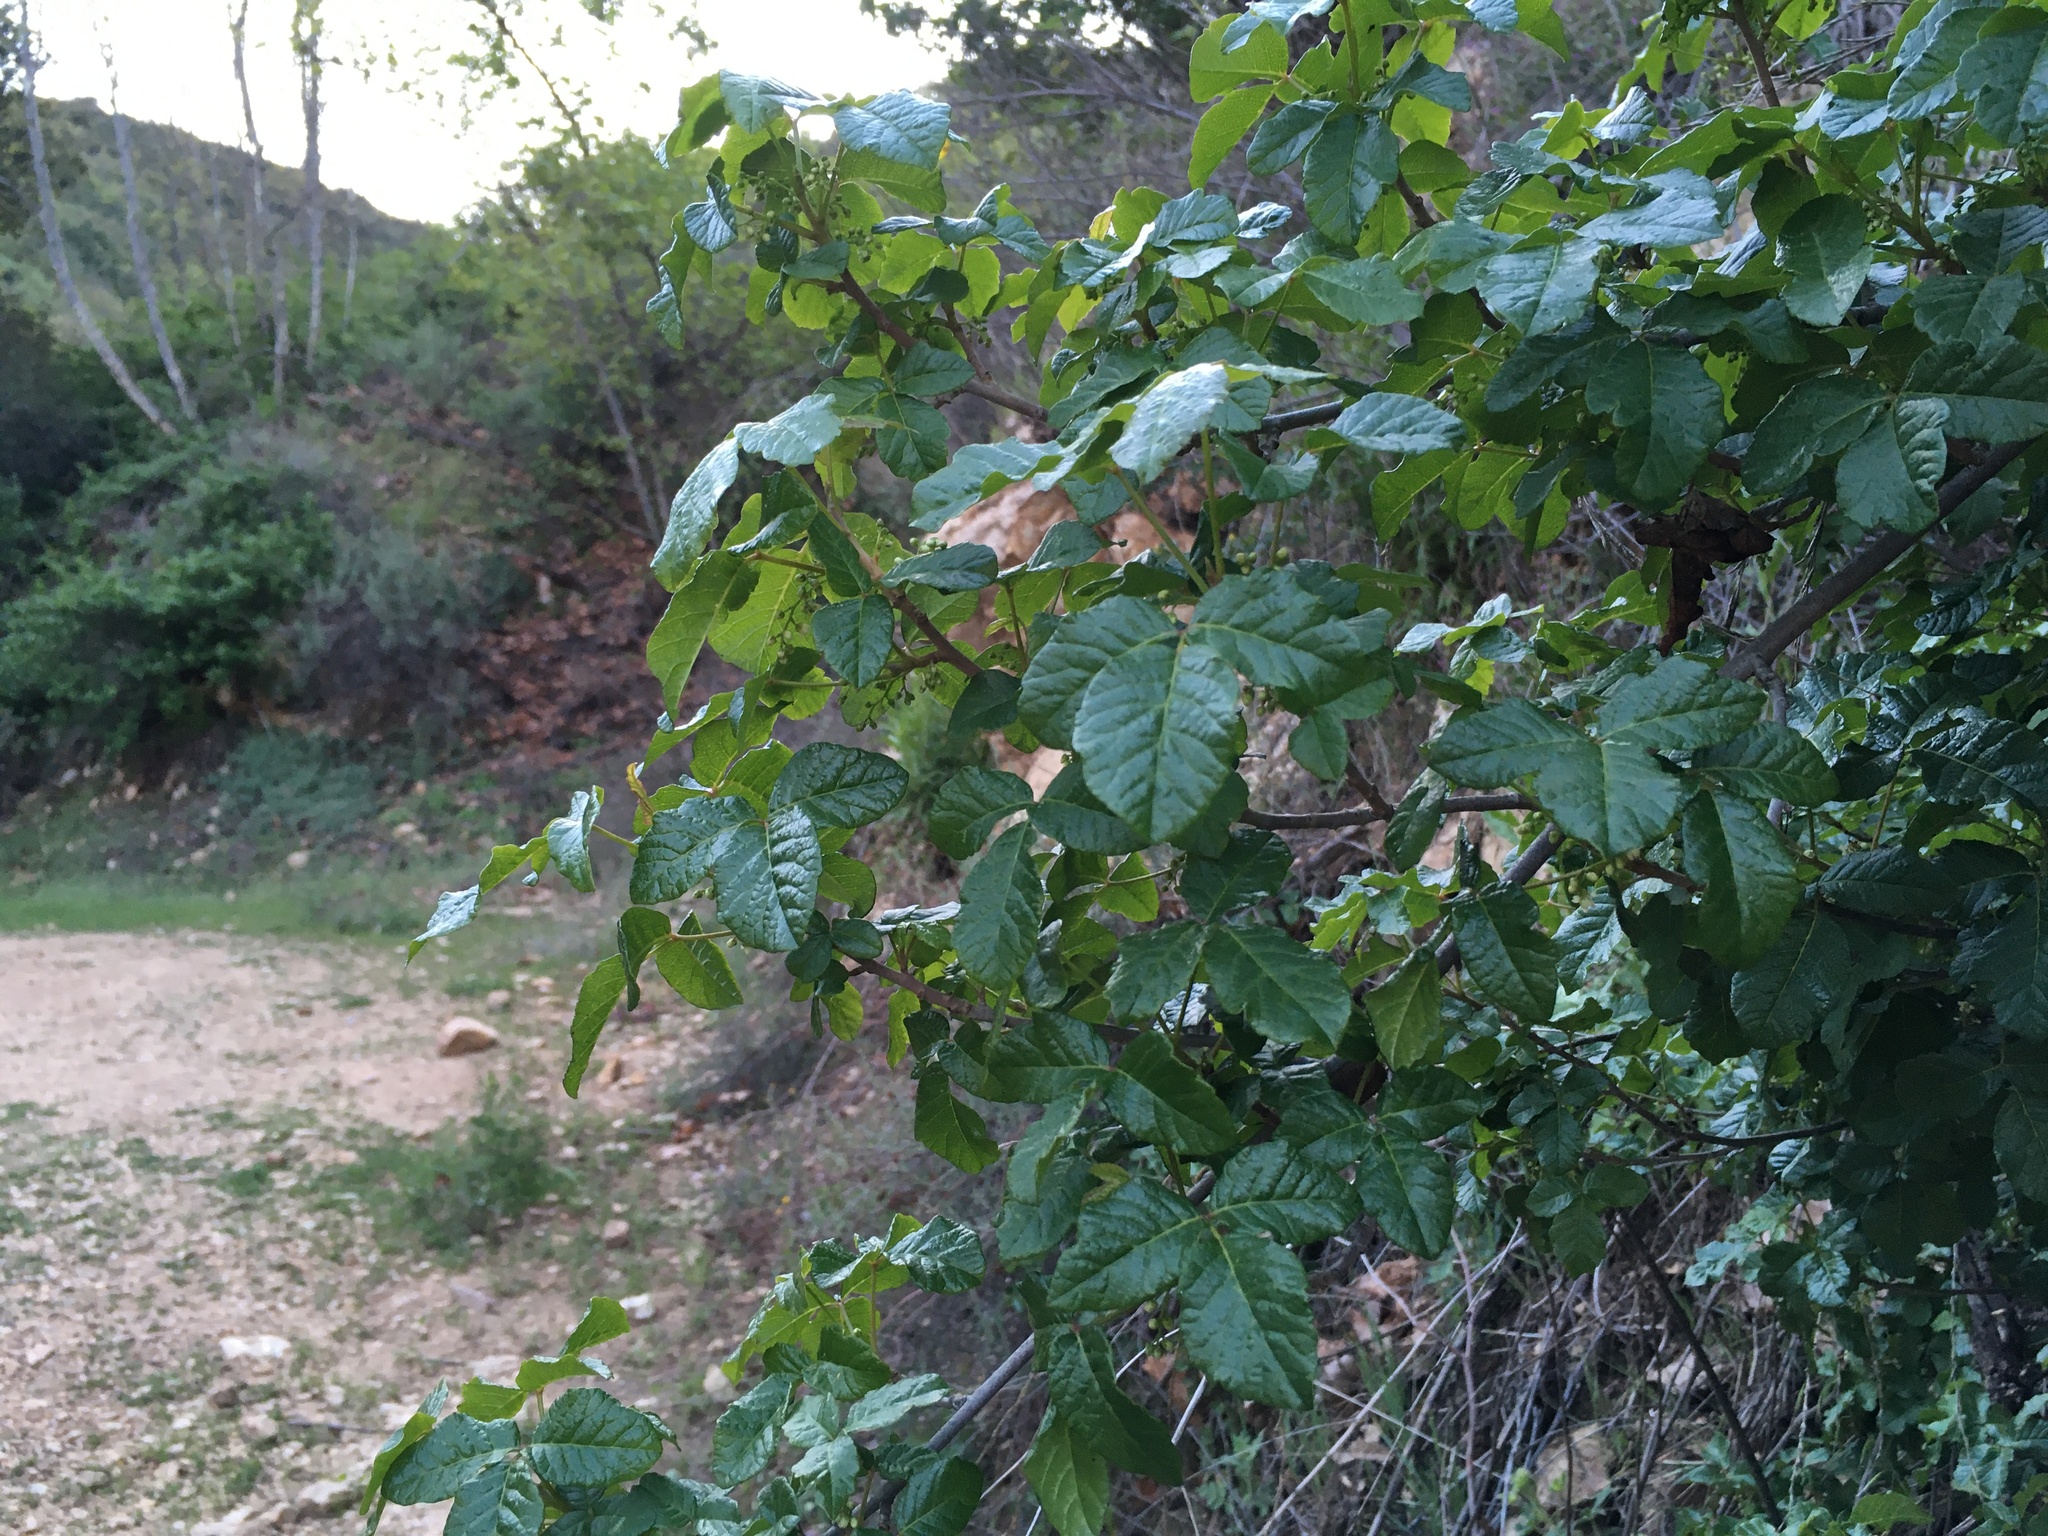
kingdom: Plantae
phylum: Tracheophyta
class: Magnoliopsida
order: Sapindales
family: Anacardiaceae
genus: Toxicodendron
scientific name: Toxicodendron diversilobum
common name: Pacific poison-oak
